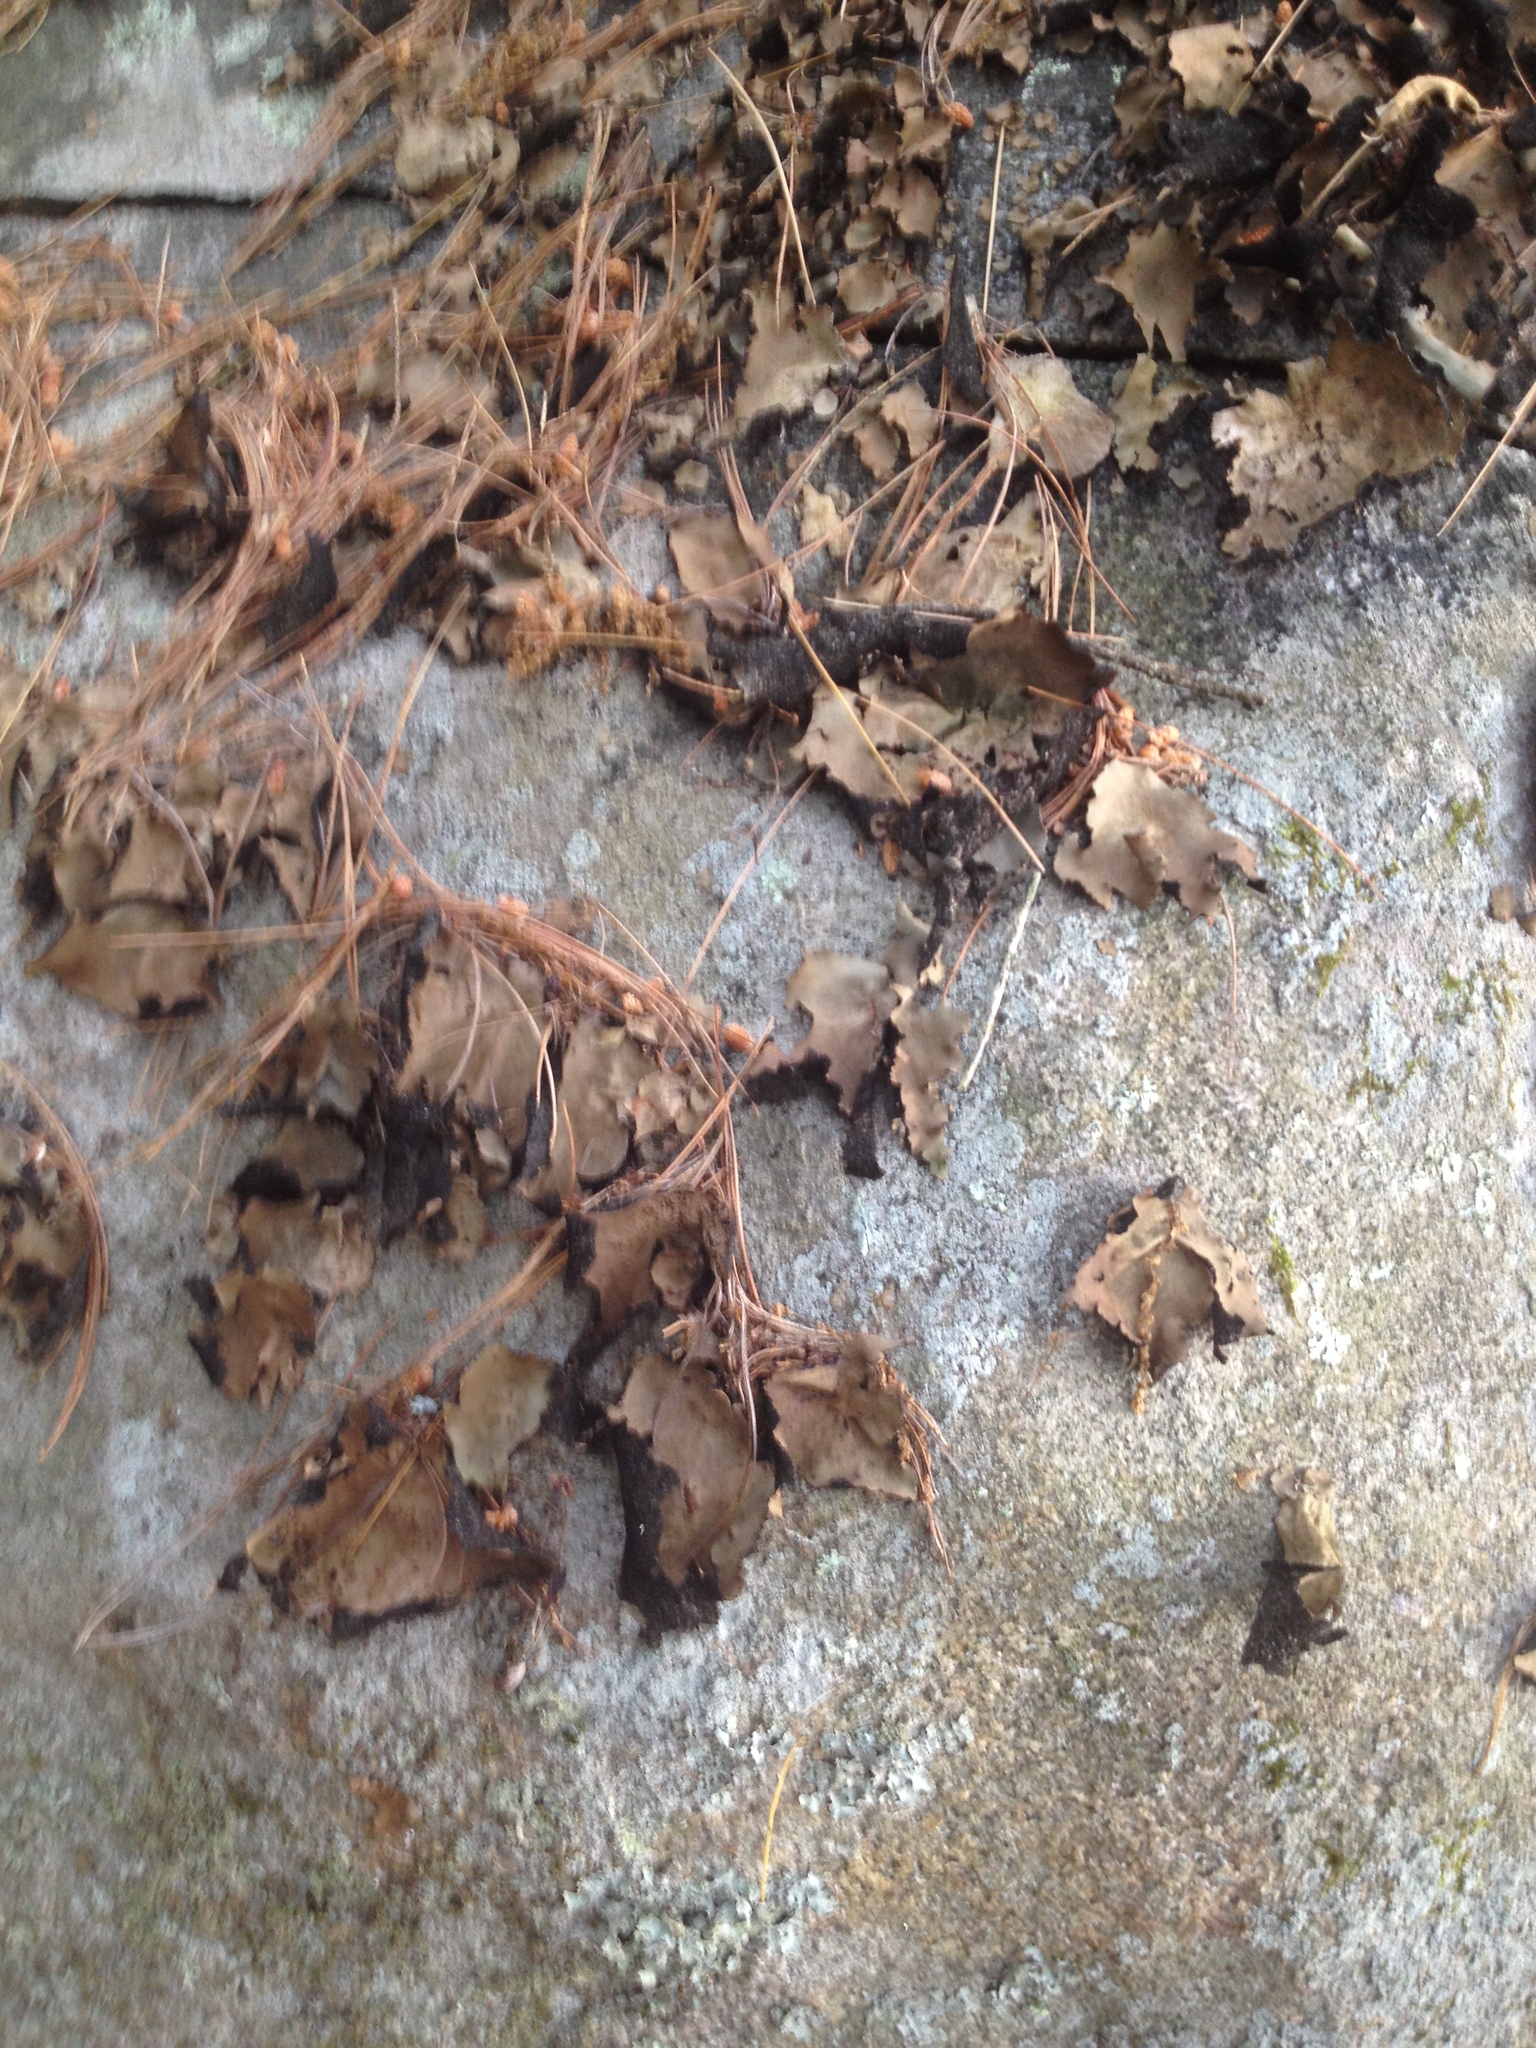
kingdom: Fungi
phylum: Ascomycota
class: Lecanoromycetes
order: Umbilicariales
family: Umbilicariaceae
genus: Umbilicaria
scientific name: Umbilicaria mammulata
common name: Smooth rock tripe
